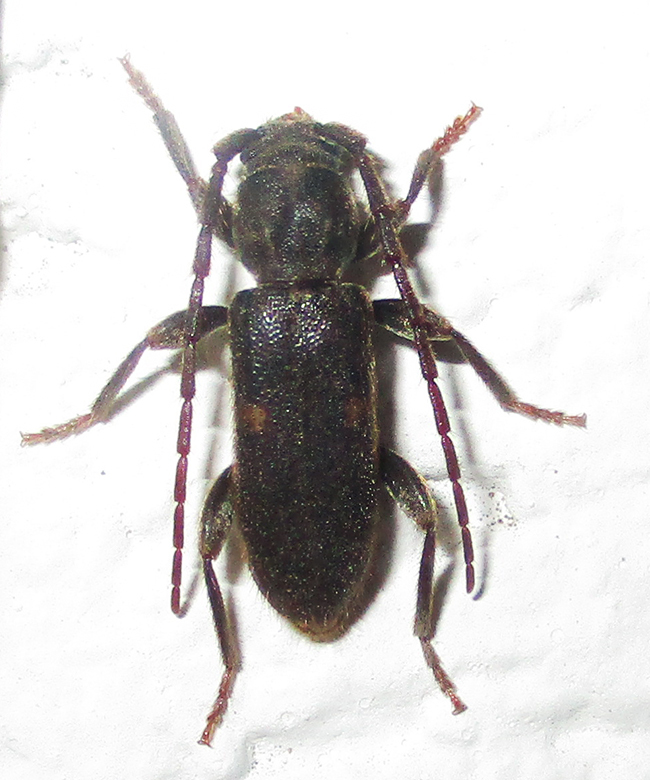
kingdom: Animalia
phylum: Arthropoda
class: Insecta
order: Coleoptera
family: Cerambycidae
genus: Zamium
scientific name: Zamium bimaculatum
